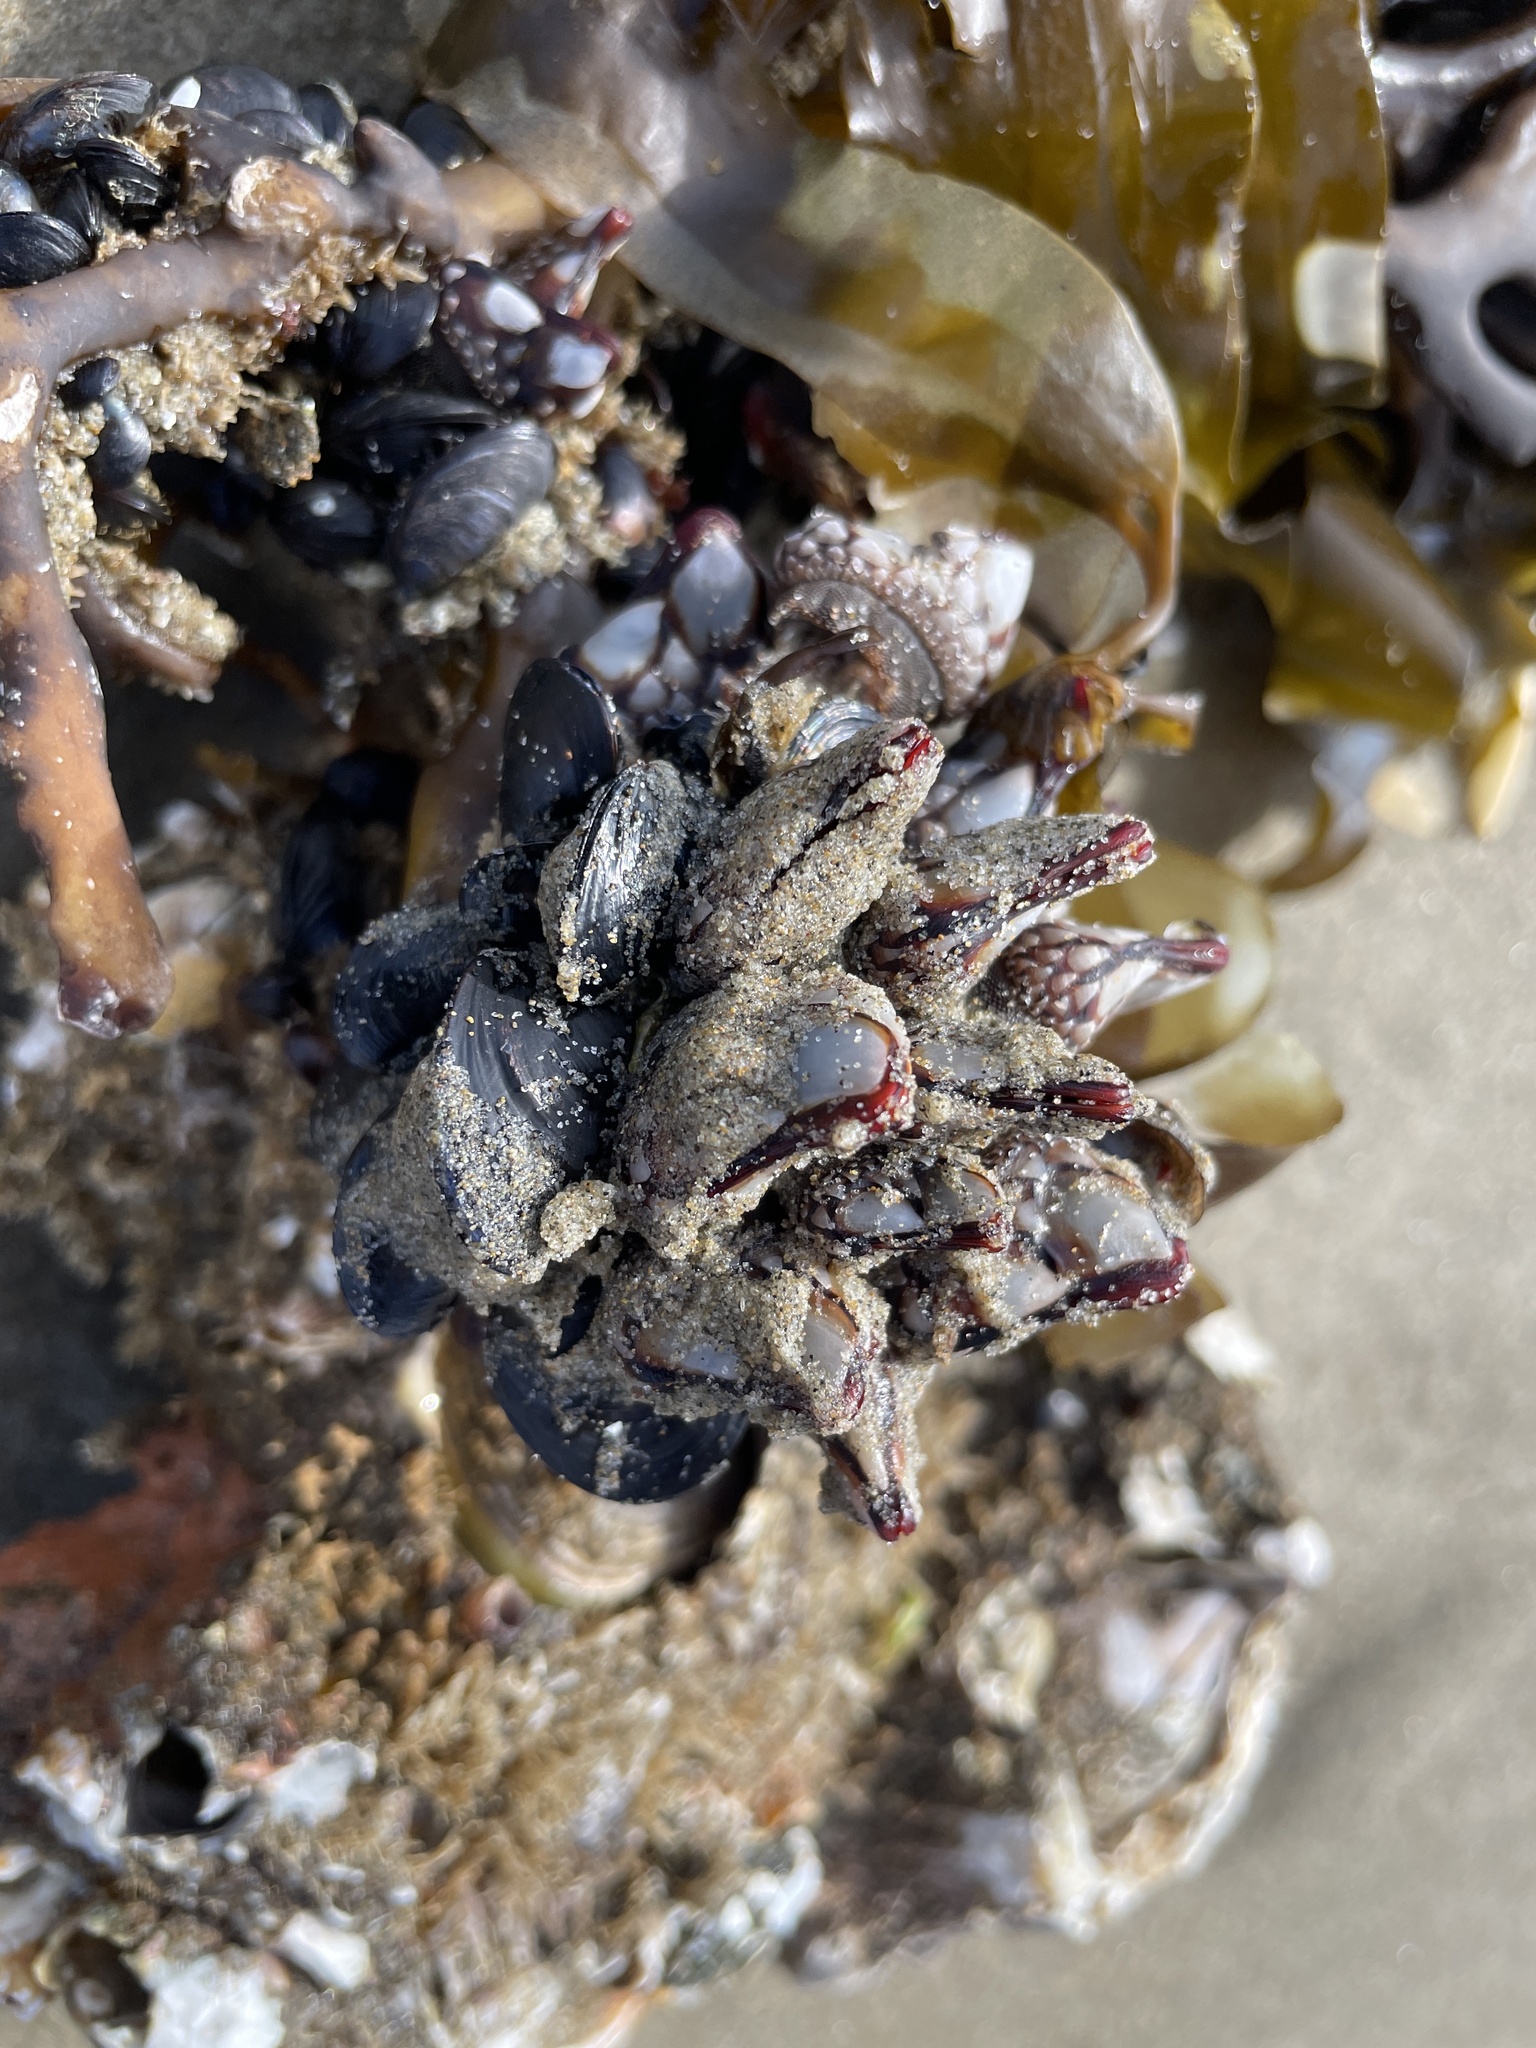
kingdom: Animalia
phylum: Arthropoda
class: Maxillopoda
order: Pedunculata
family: Pollicipedidae
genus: Pollicipes
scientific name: Pollicipes polymerus
